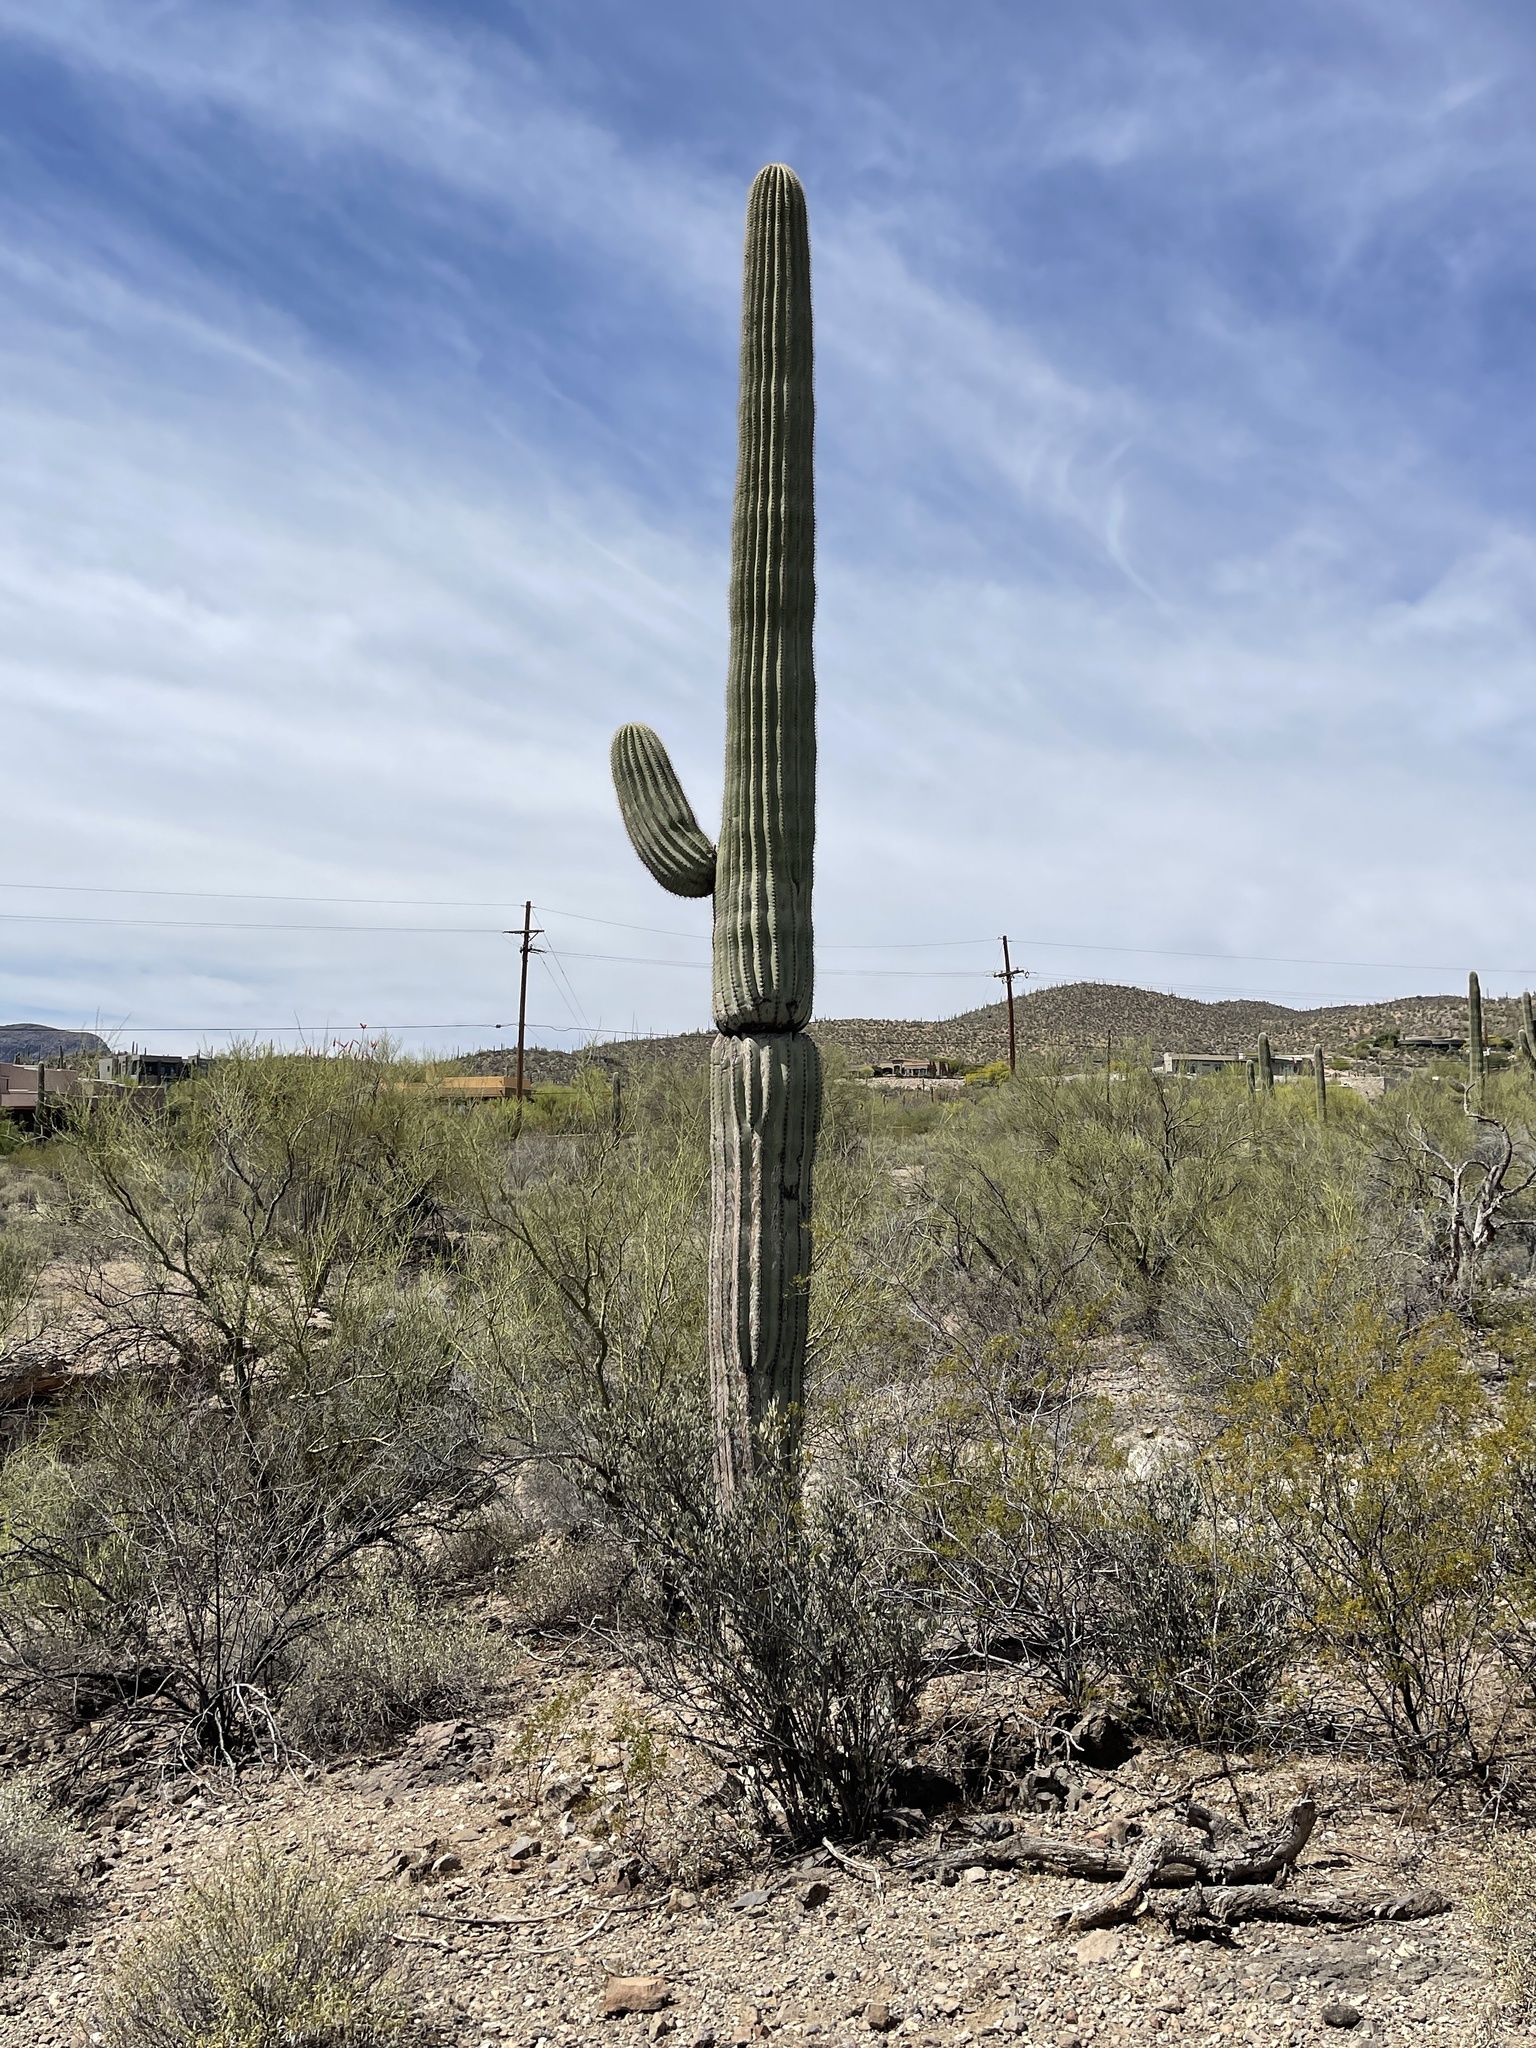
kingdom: Plantae
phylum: Tracheophyta
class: Magnoliopsida
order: Caryophyllales
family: Cactaceae
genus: Carnegiea
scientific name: Carnegiea gigantea
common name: Saguaro
